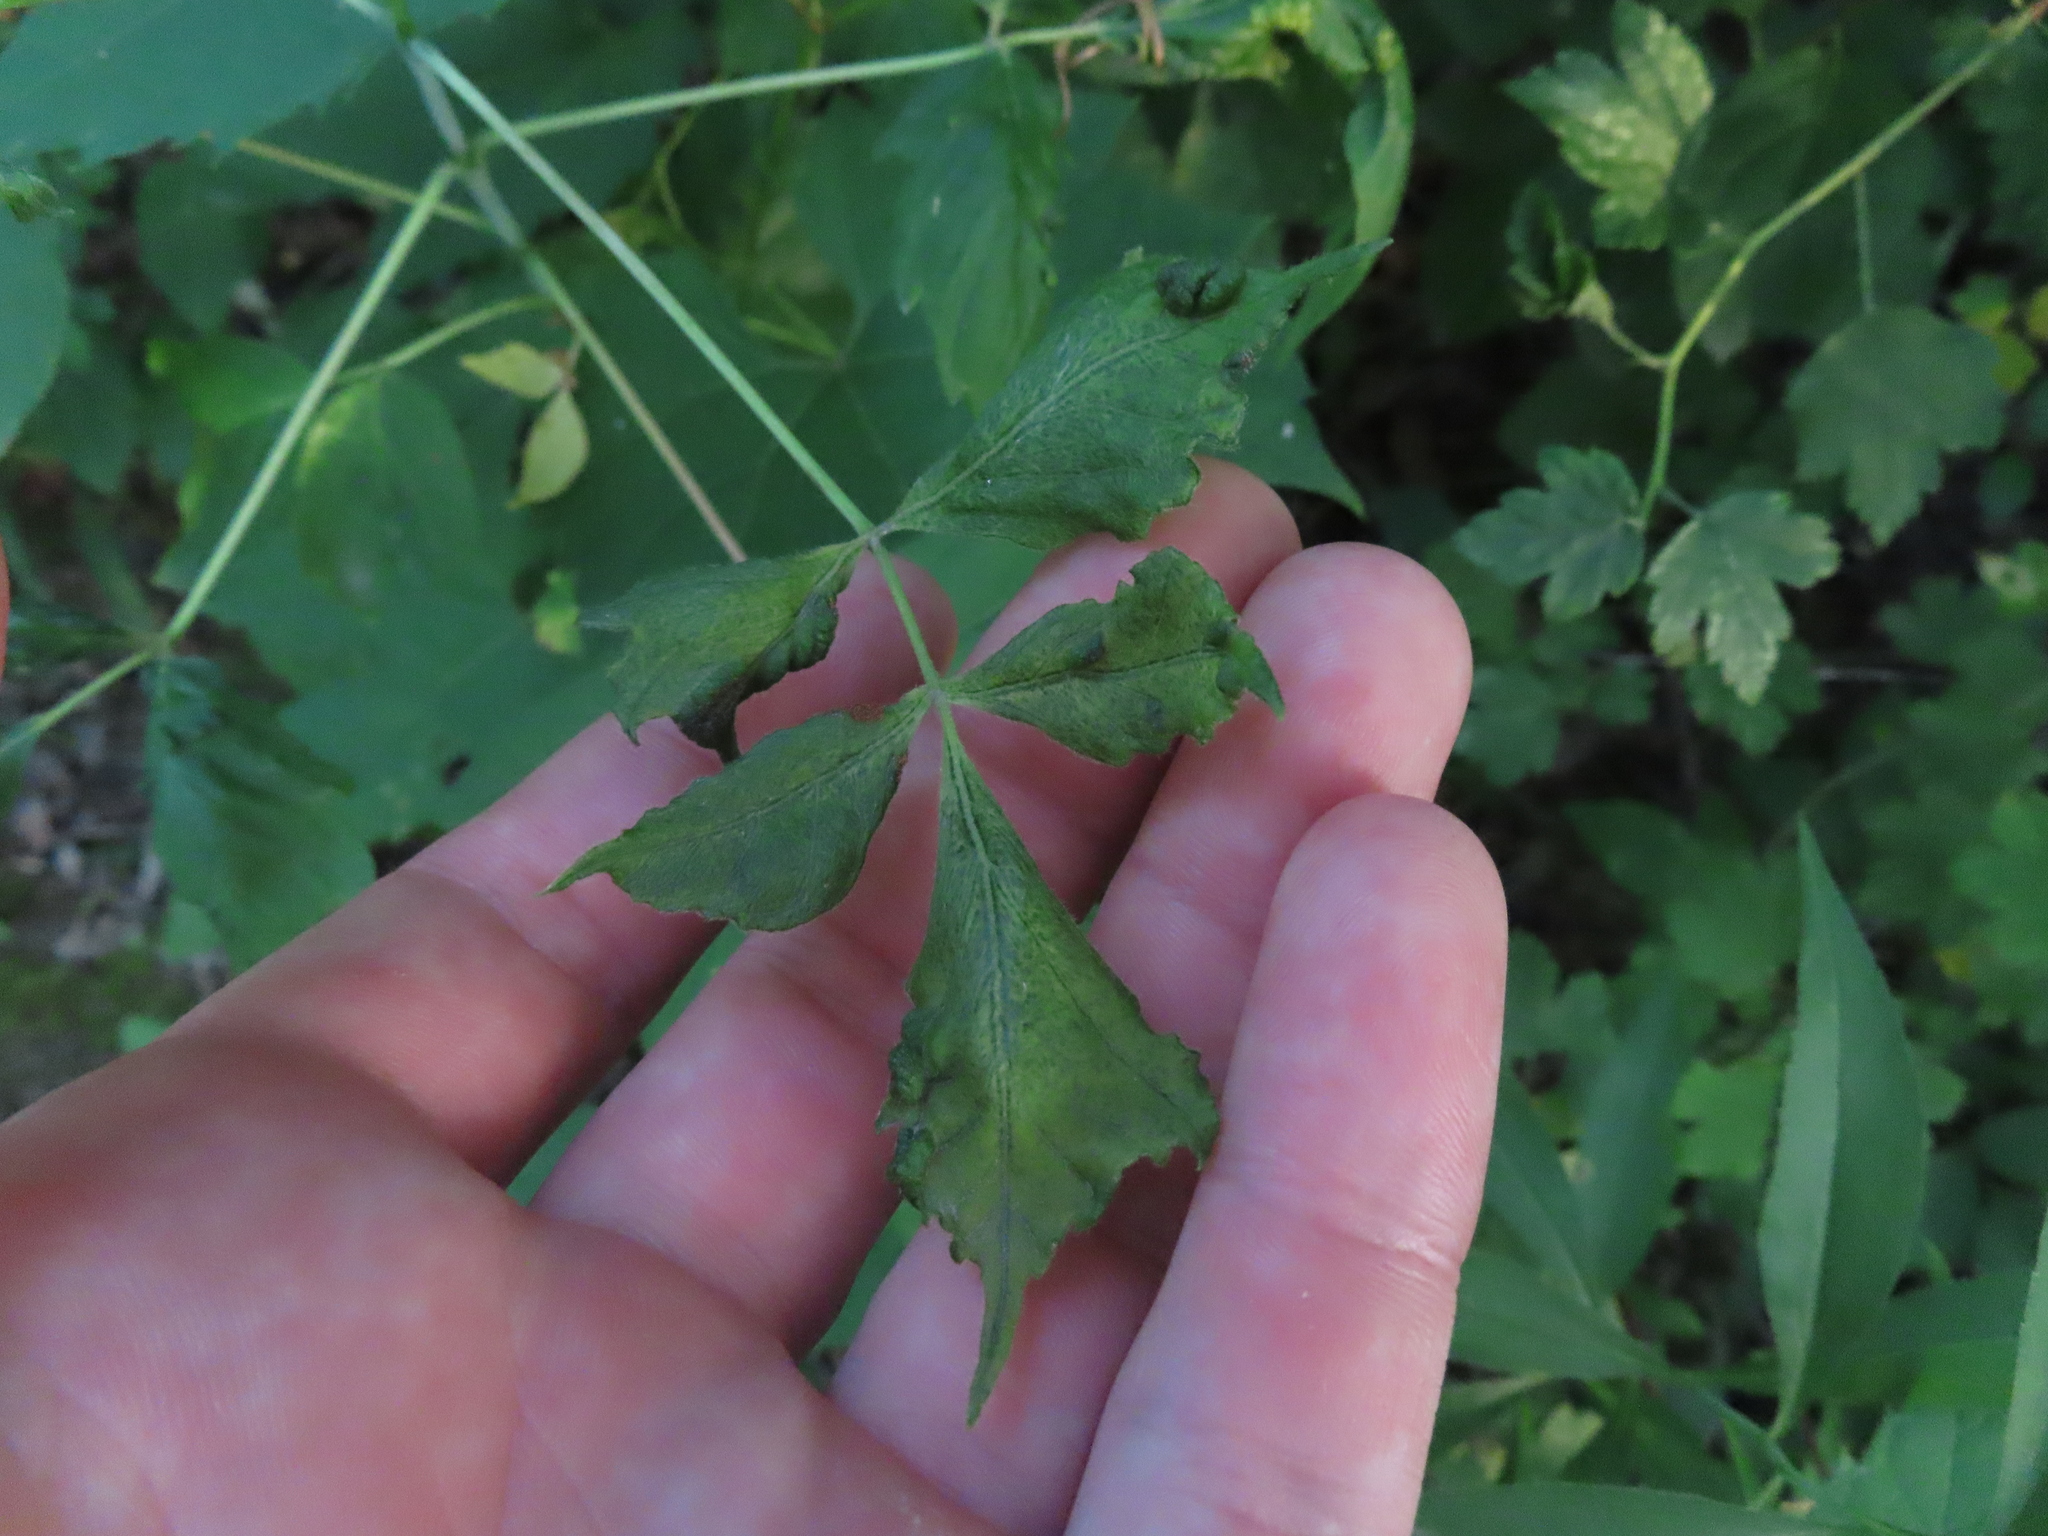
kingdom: Animalia
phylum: Arthropoda
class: Arachnida
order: Trombidiformes
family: Eriophyidae
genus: Aceria
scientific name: Aceria
